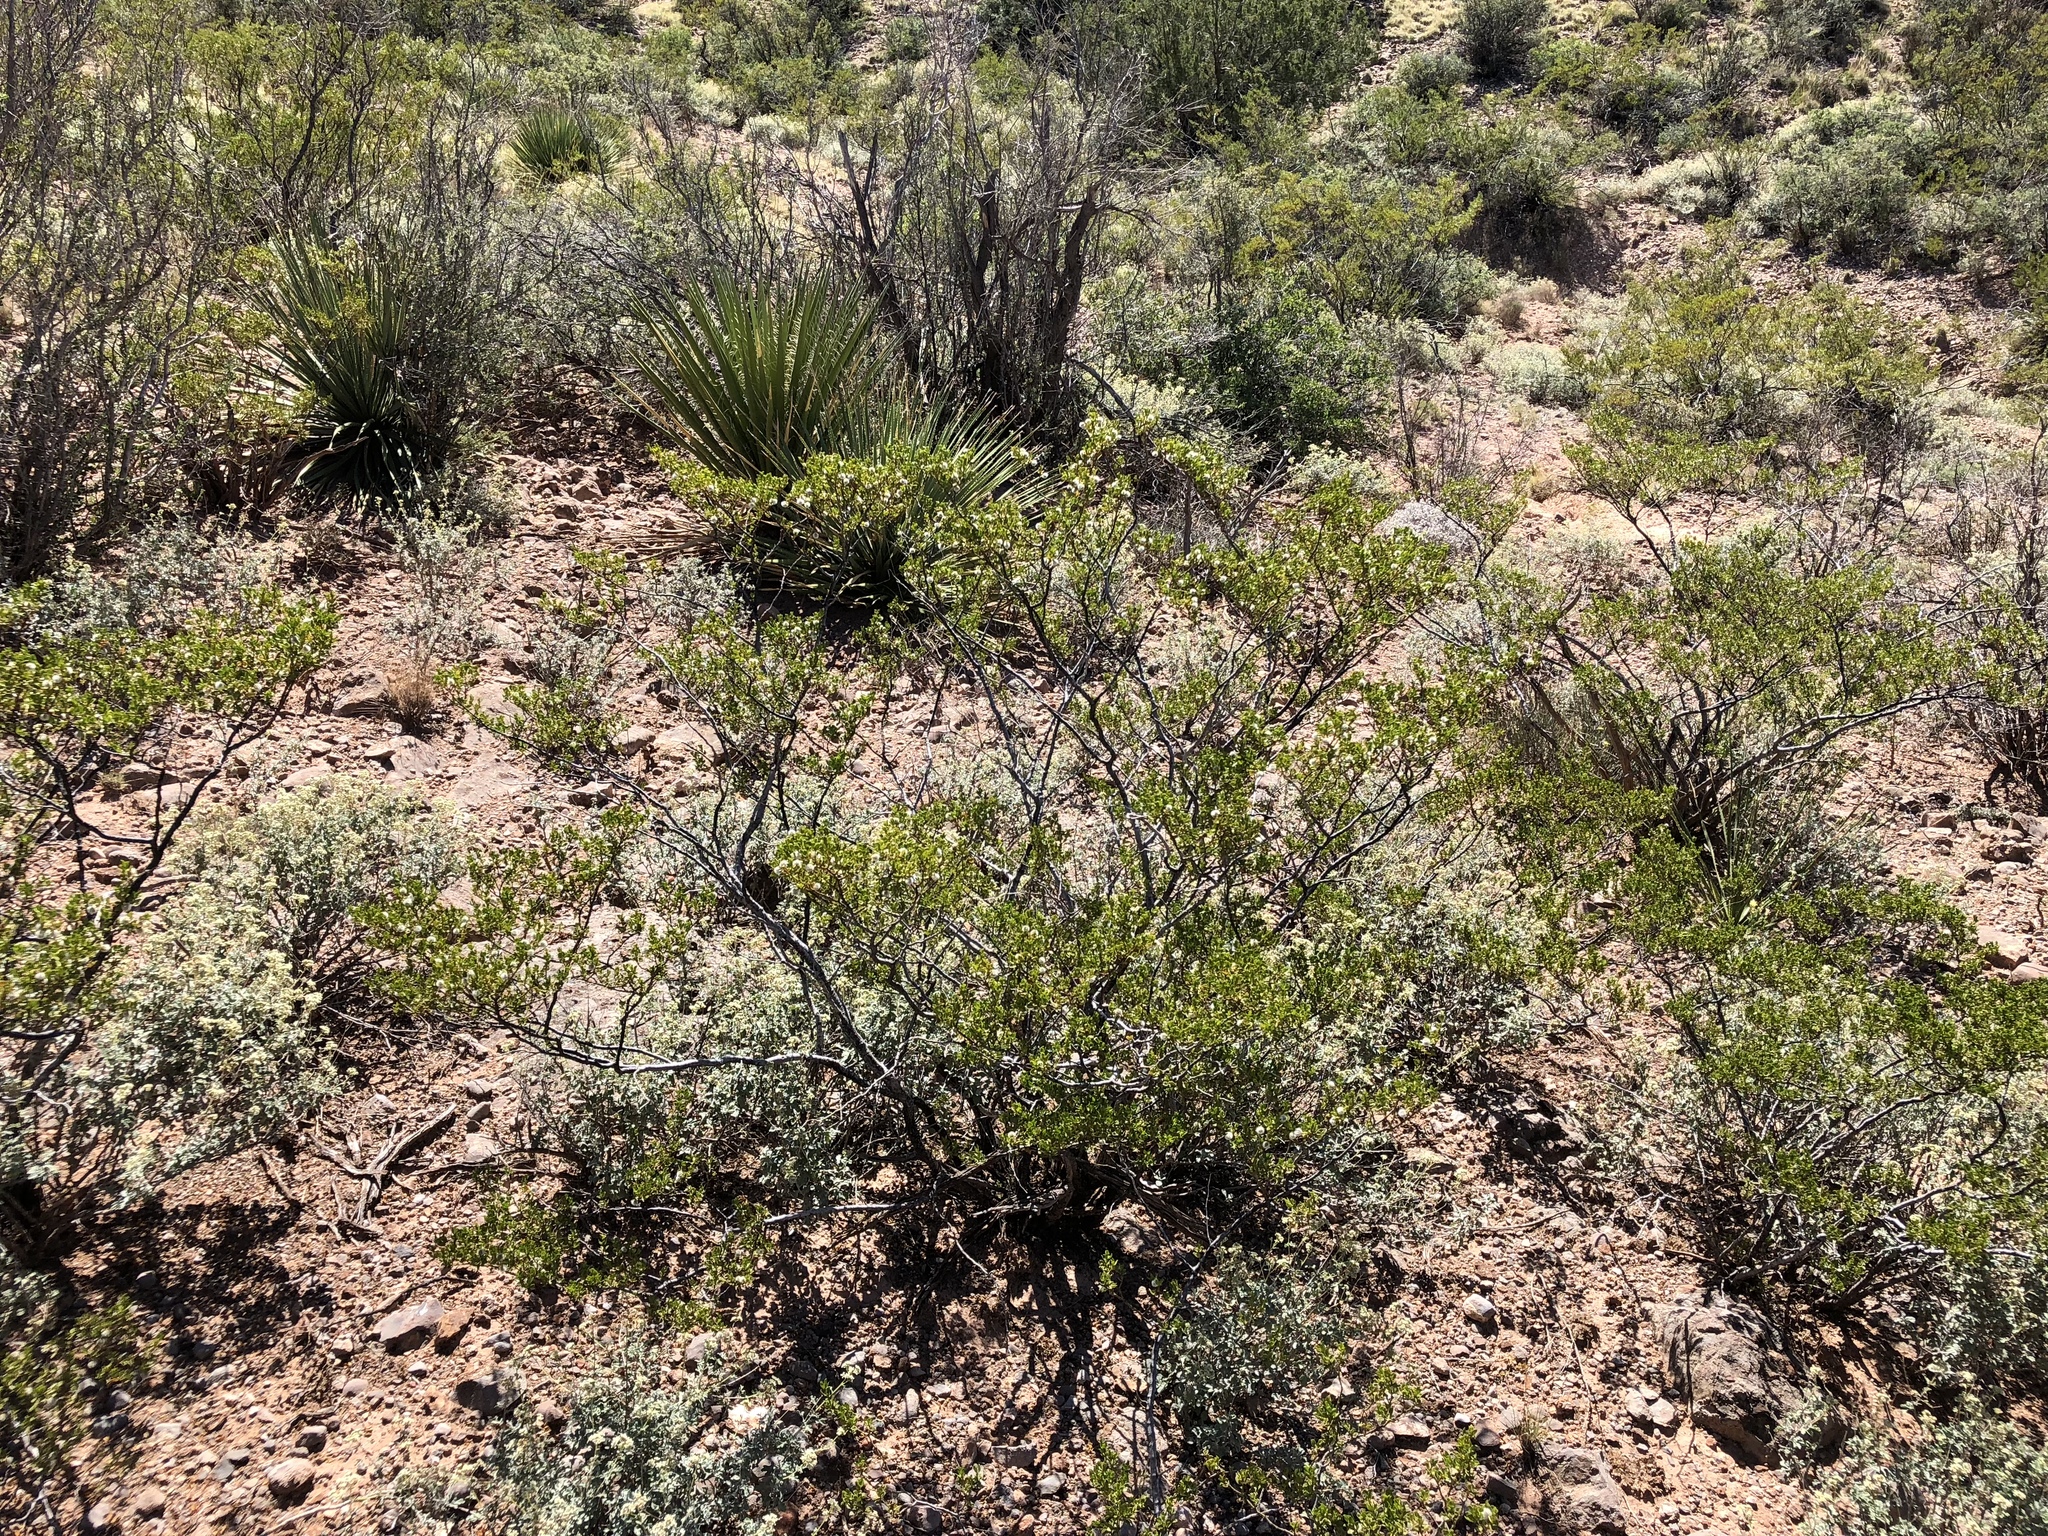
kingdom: Plantae
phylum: Tracheophyta
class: Magnoliopsida
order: Zygophyllales
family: Zygophyllaceae
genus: Larrea
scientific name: Larrea tridentata
